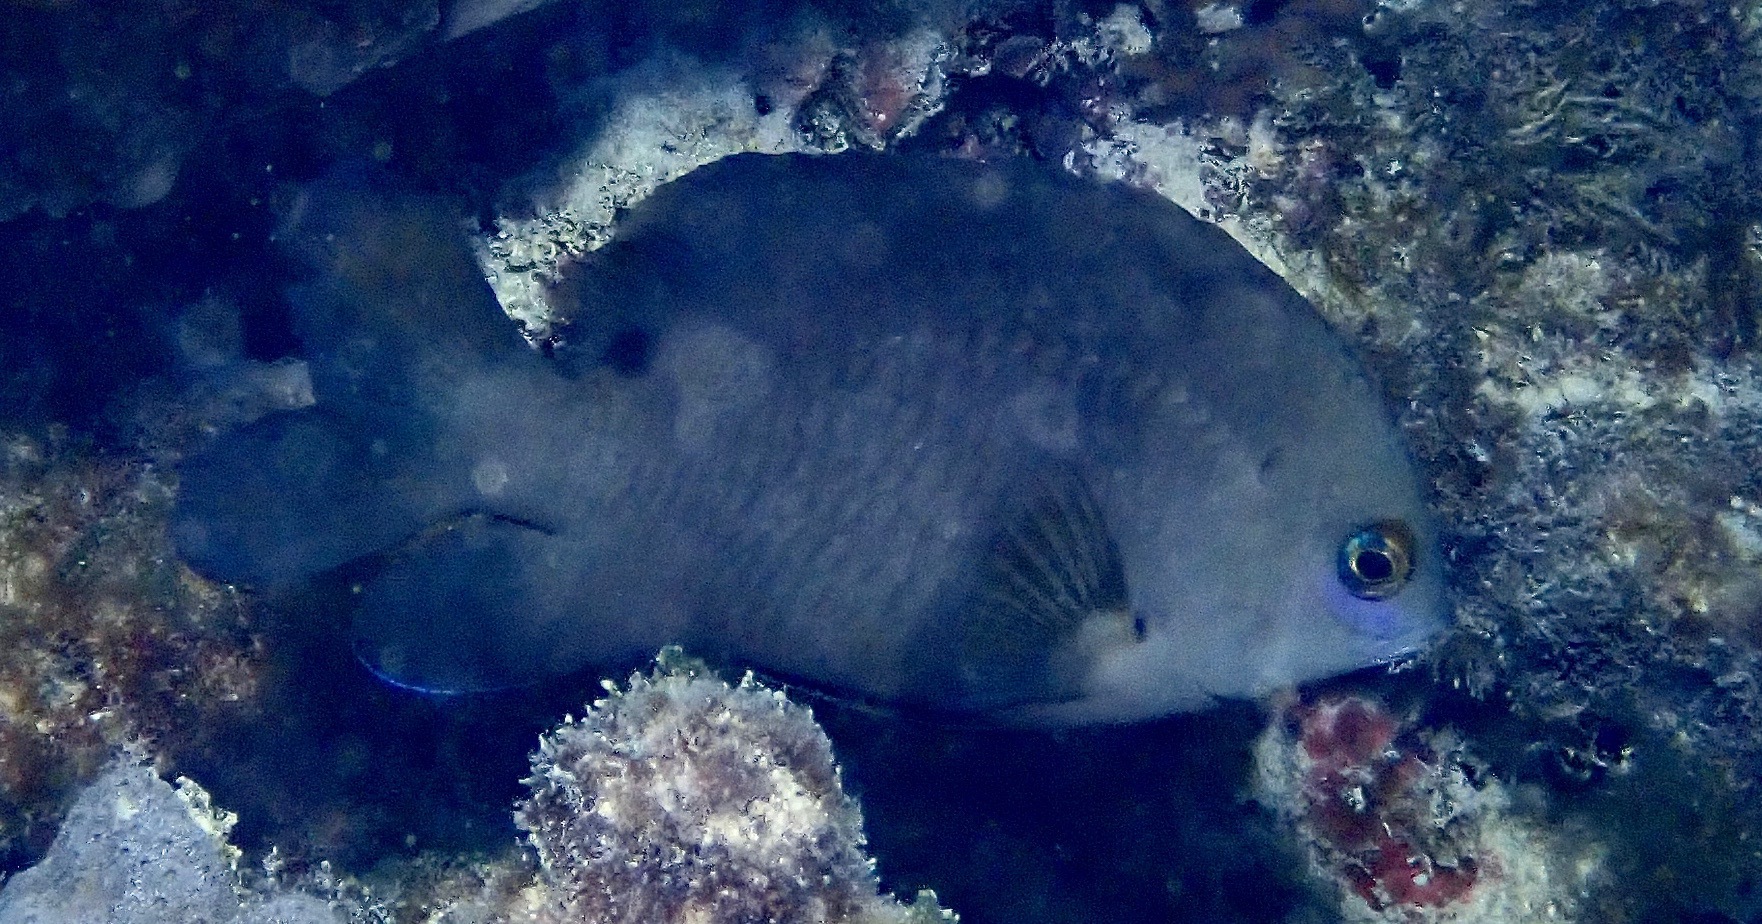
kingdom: Animalia
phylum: Chordata
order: Perciformes
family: Pomacentridae
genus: Stegastes
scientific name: Stegastes nigricans
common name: Dusky gregory
